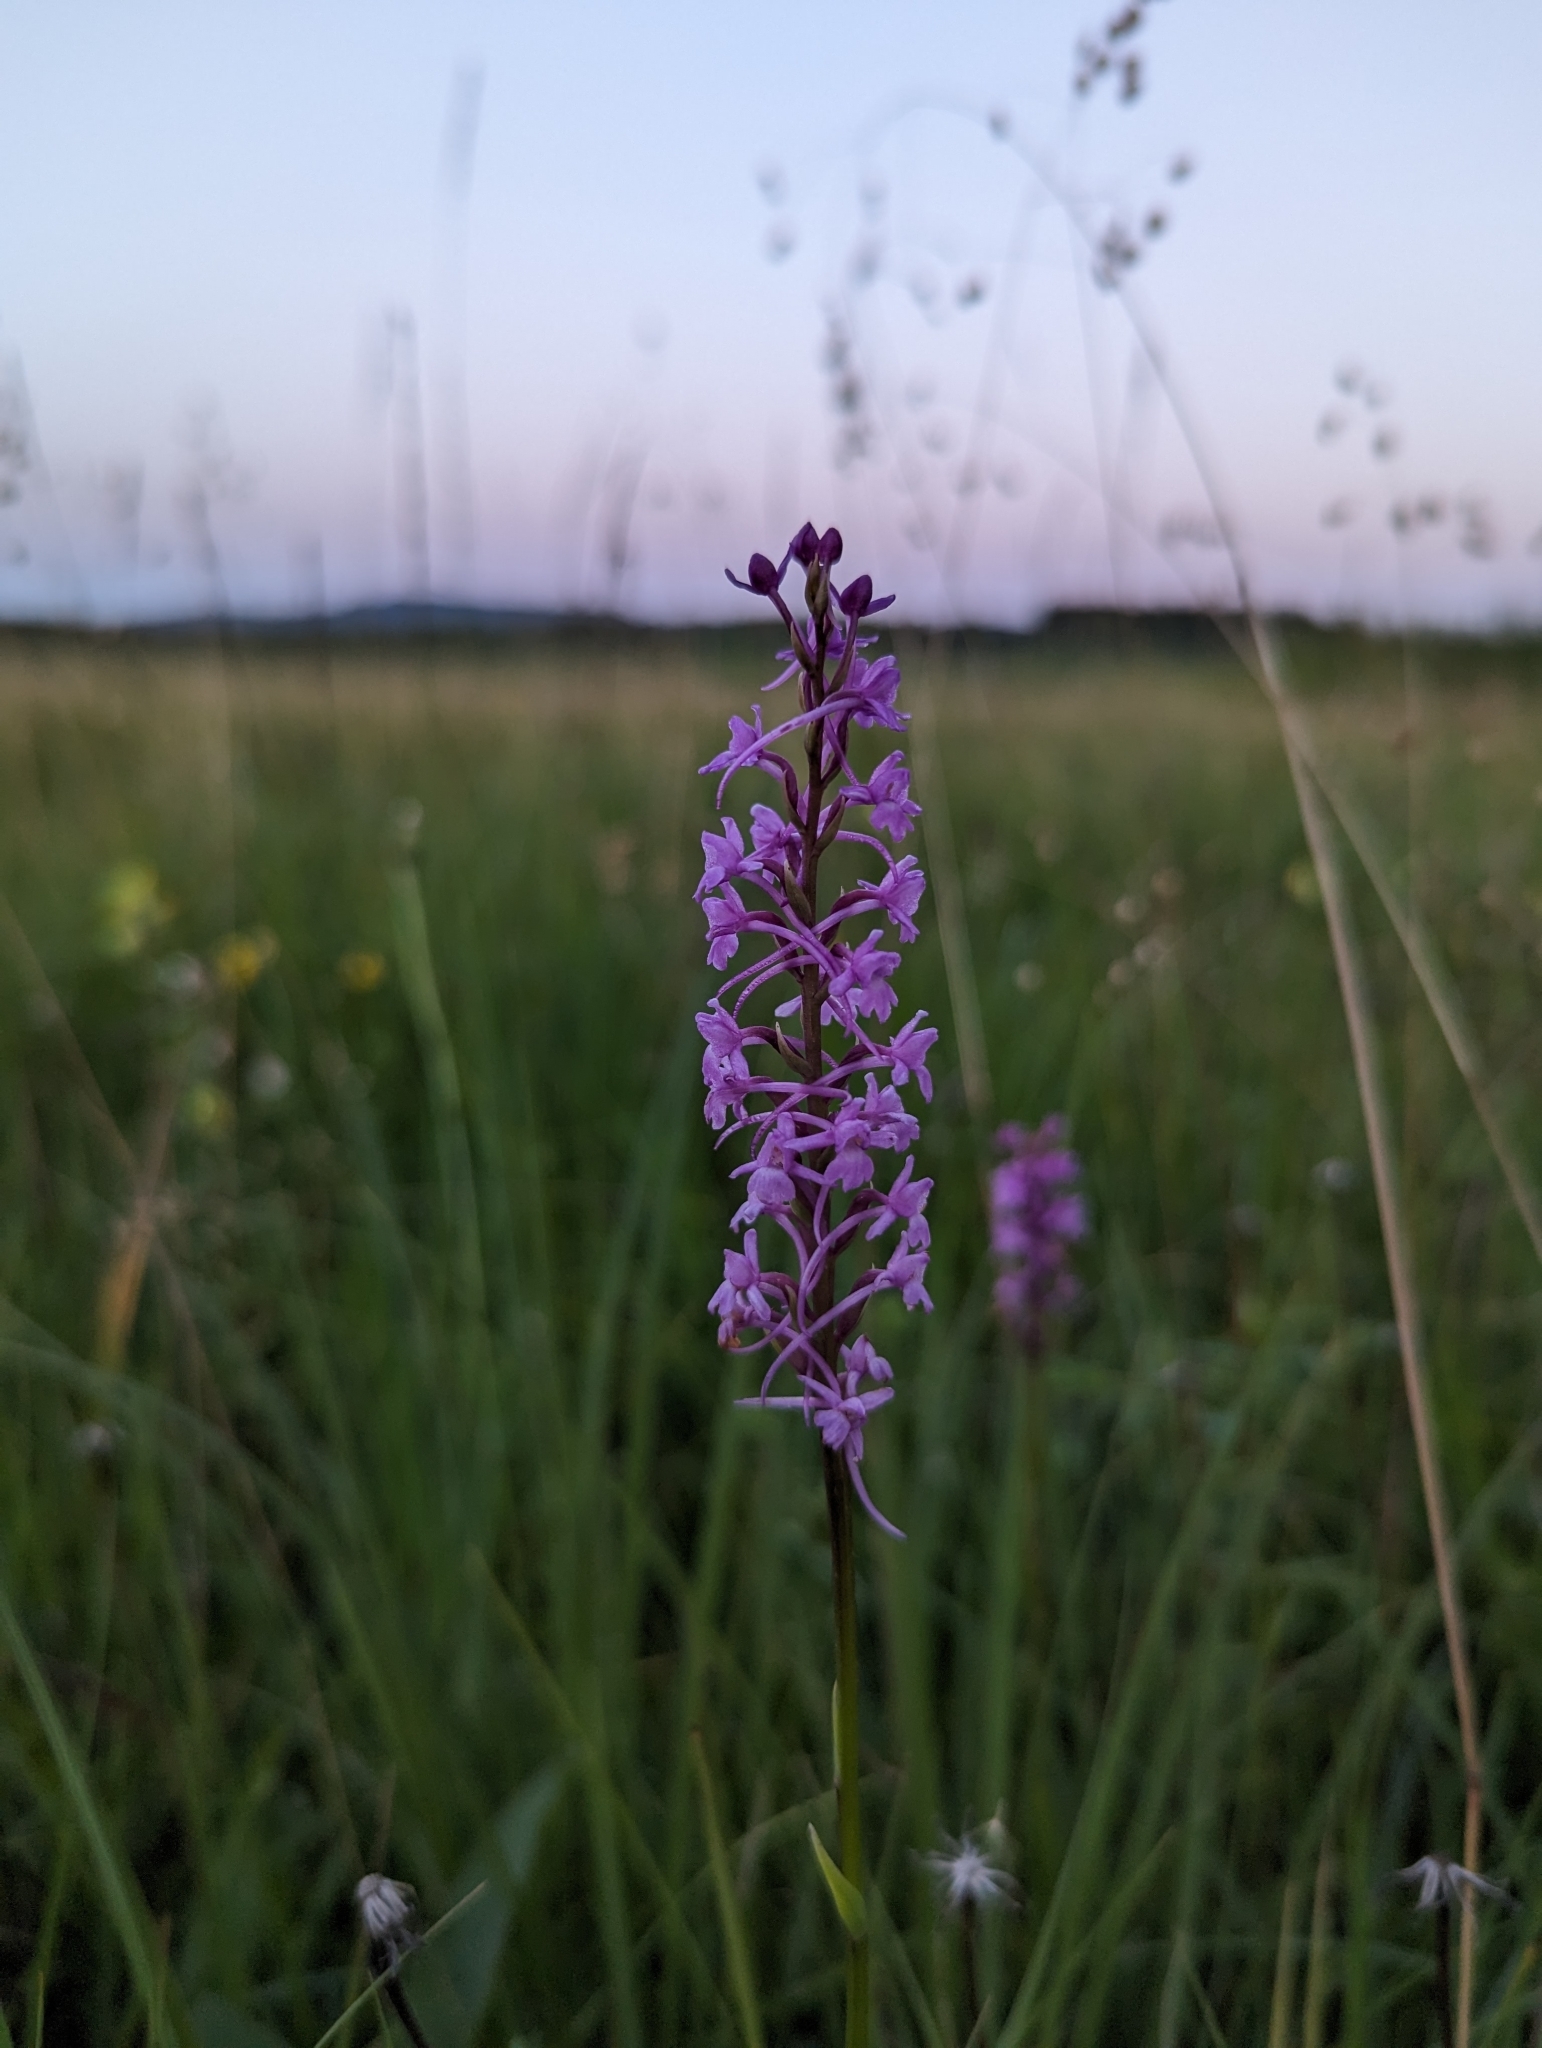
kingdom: Plantae
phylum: Tracheophyta
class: Liliopsida
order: Asparagales
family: Orchidaceae
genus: Gymnadenia
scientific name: Gymnadenia conopsea
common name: Fragrant orchid
